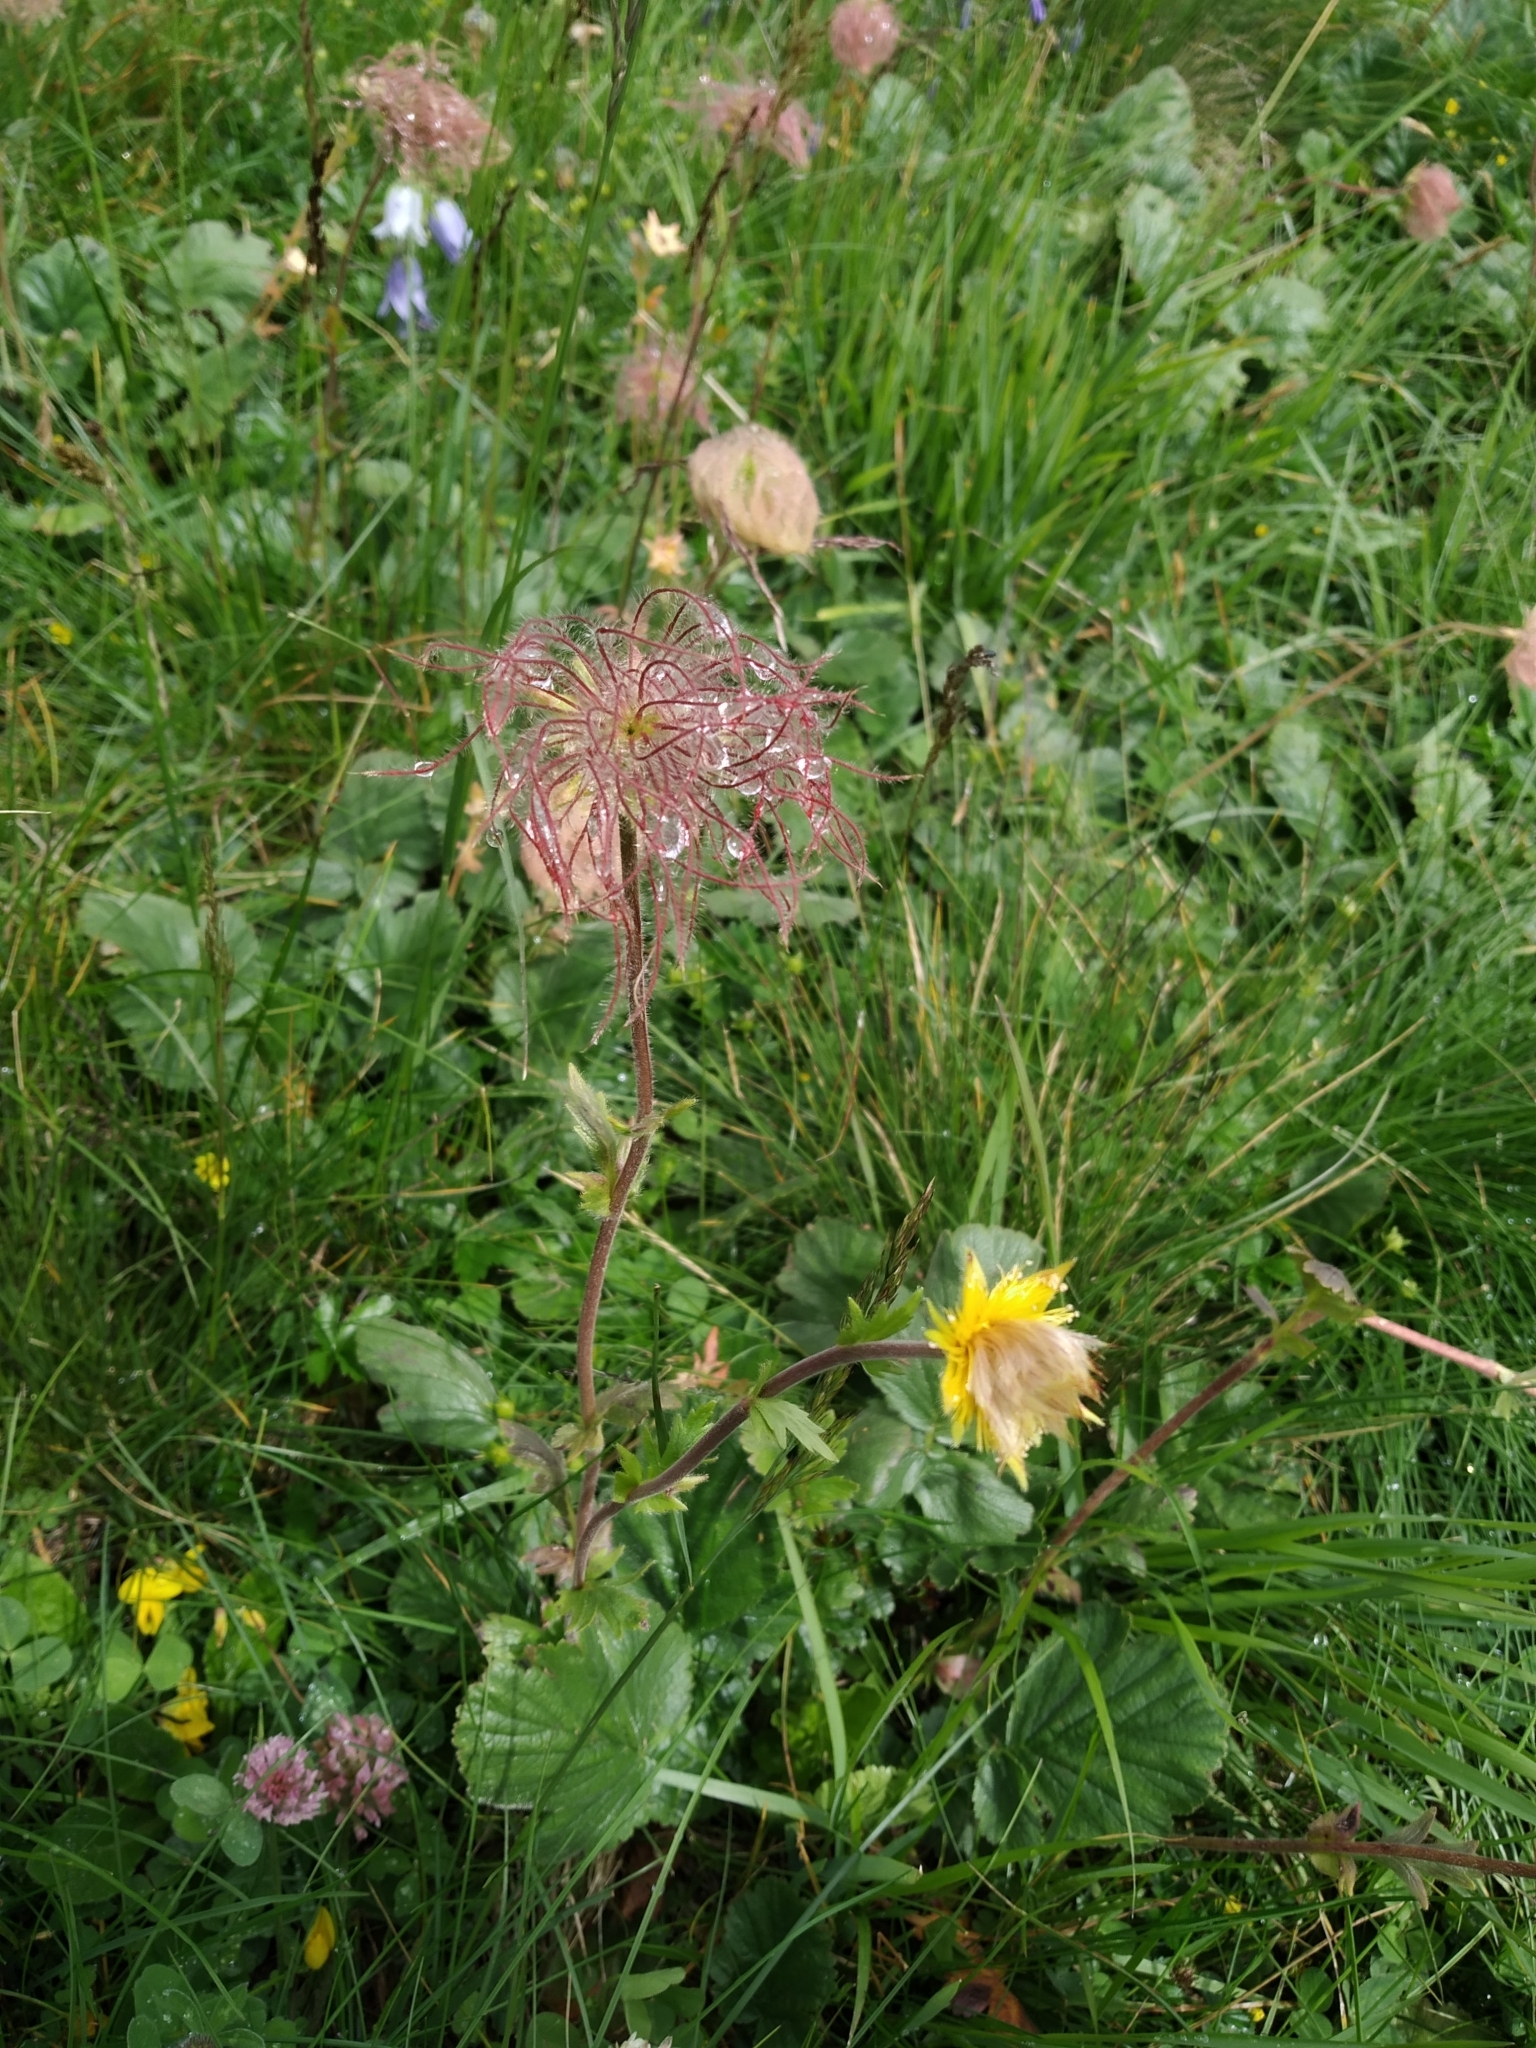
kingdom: Plantae
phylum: Tracheophyta
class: Magnoliopsida
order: Rosales
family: Rosaceae
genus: Geum
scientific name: Geum montanum
